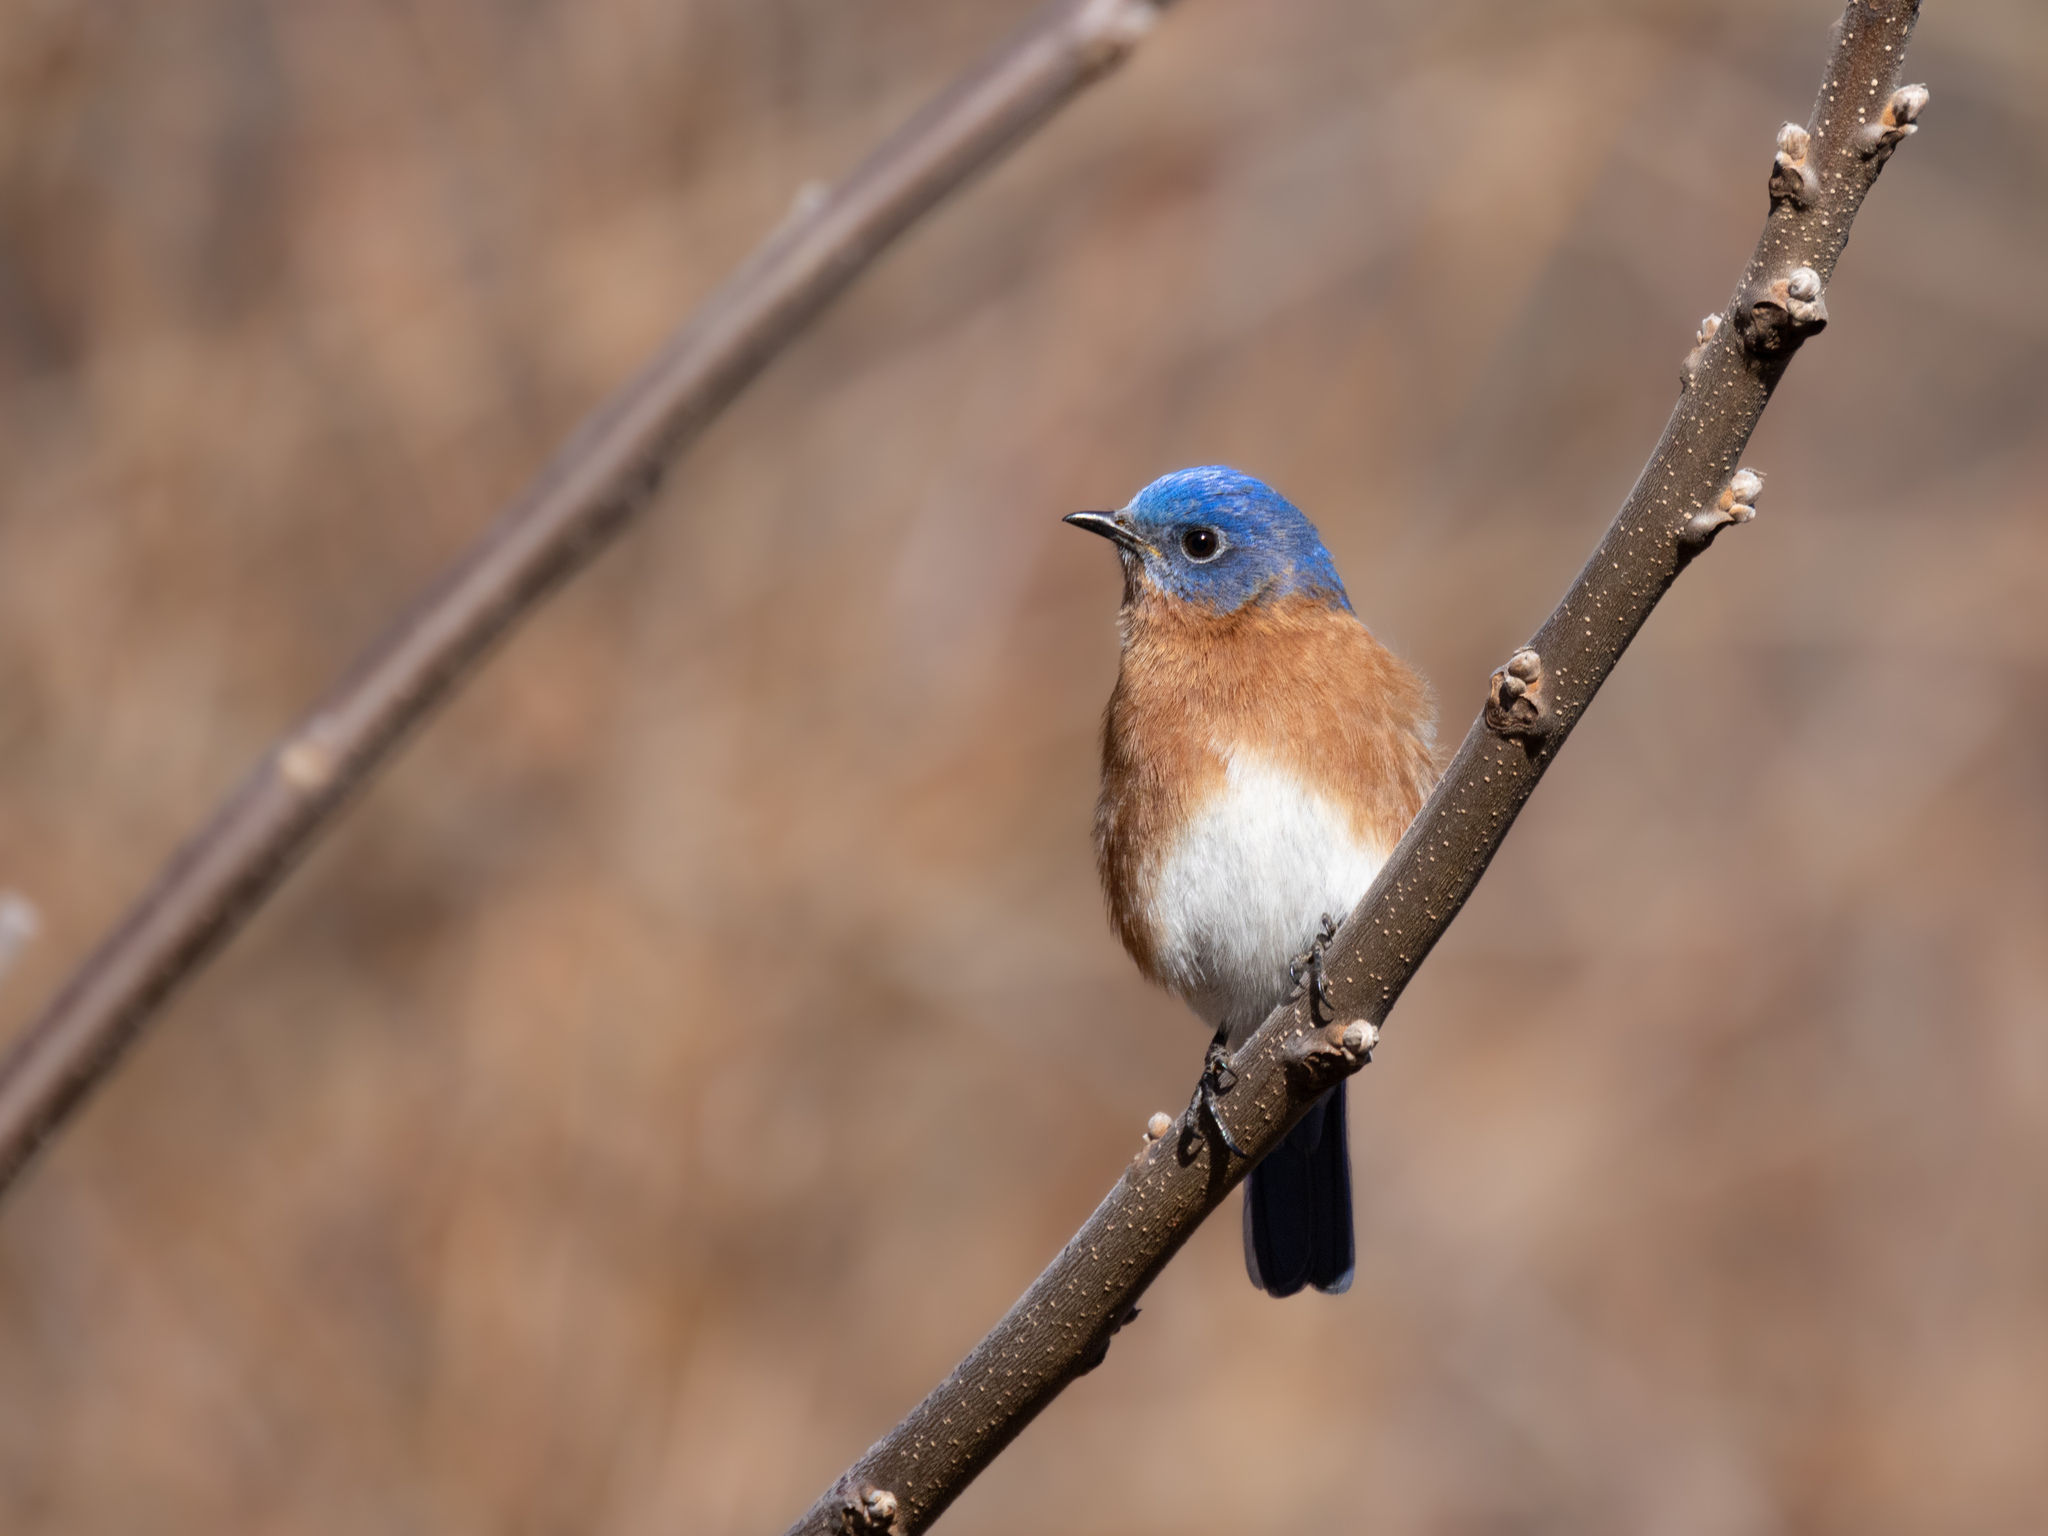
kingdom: Animalia
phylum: Chordata
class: Aves
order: Passeriformes
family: Turdidae
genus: Sialia
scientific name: Sialia sialis
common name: Eastern bluebird
